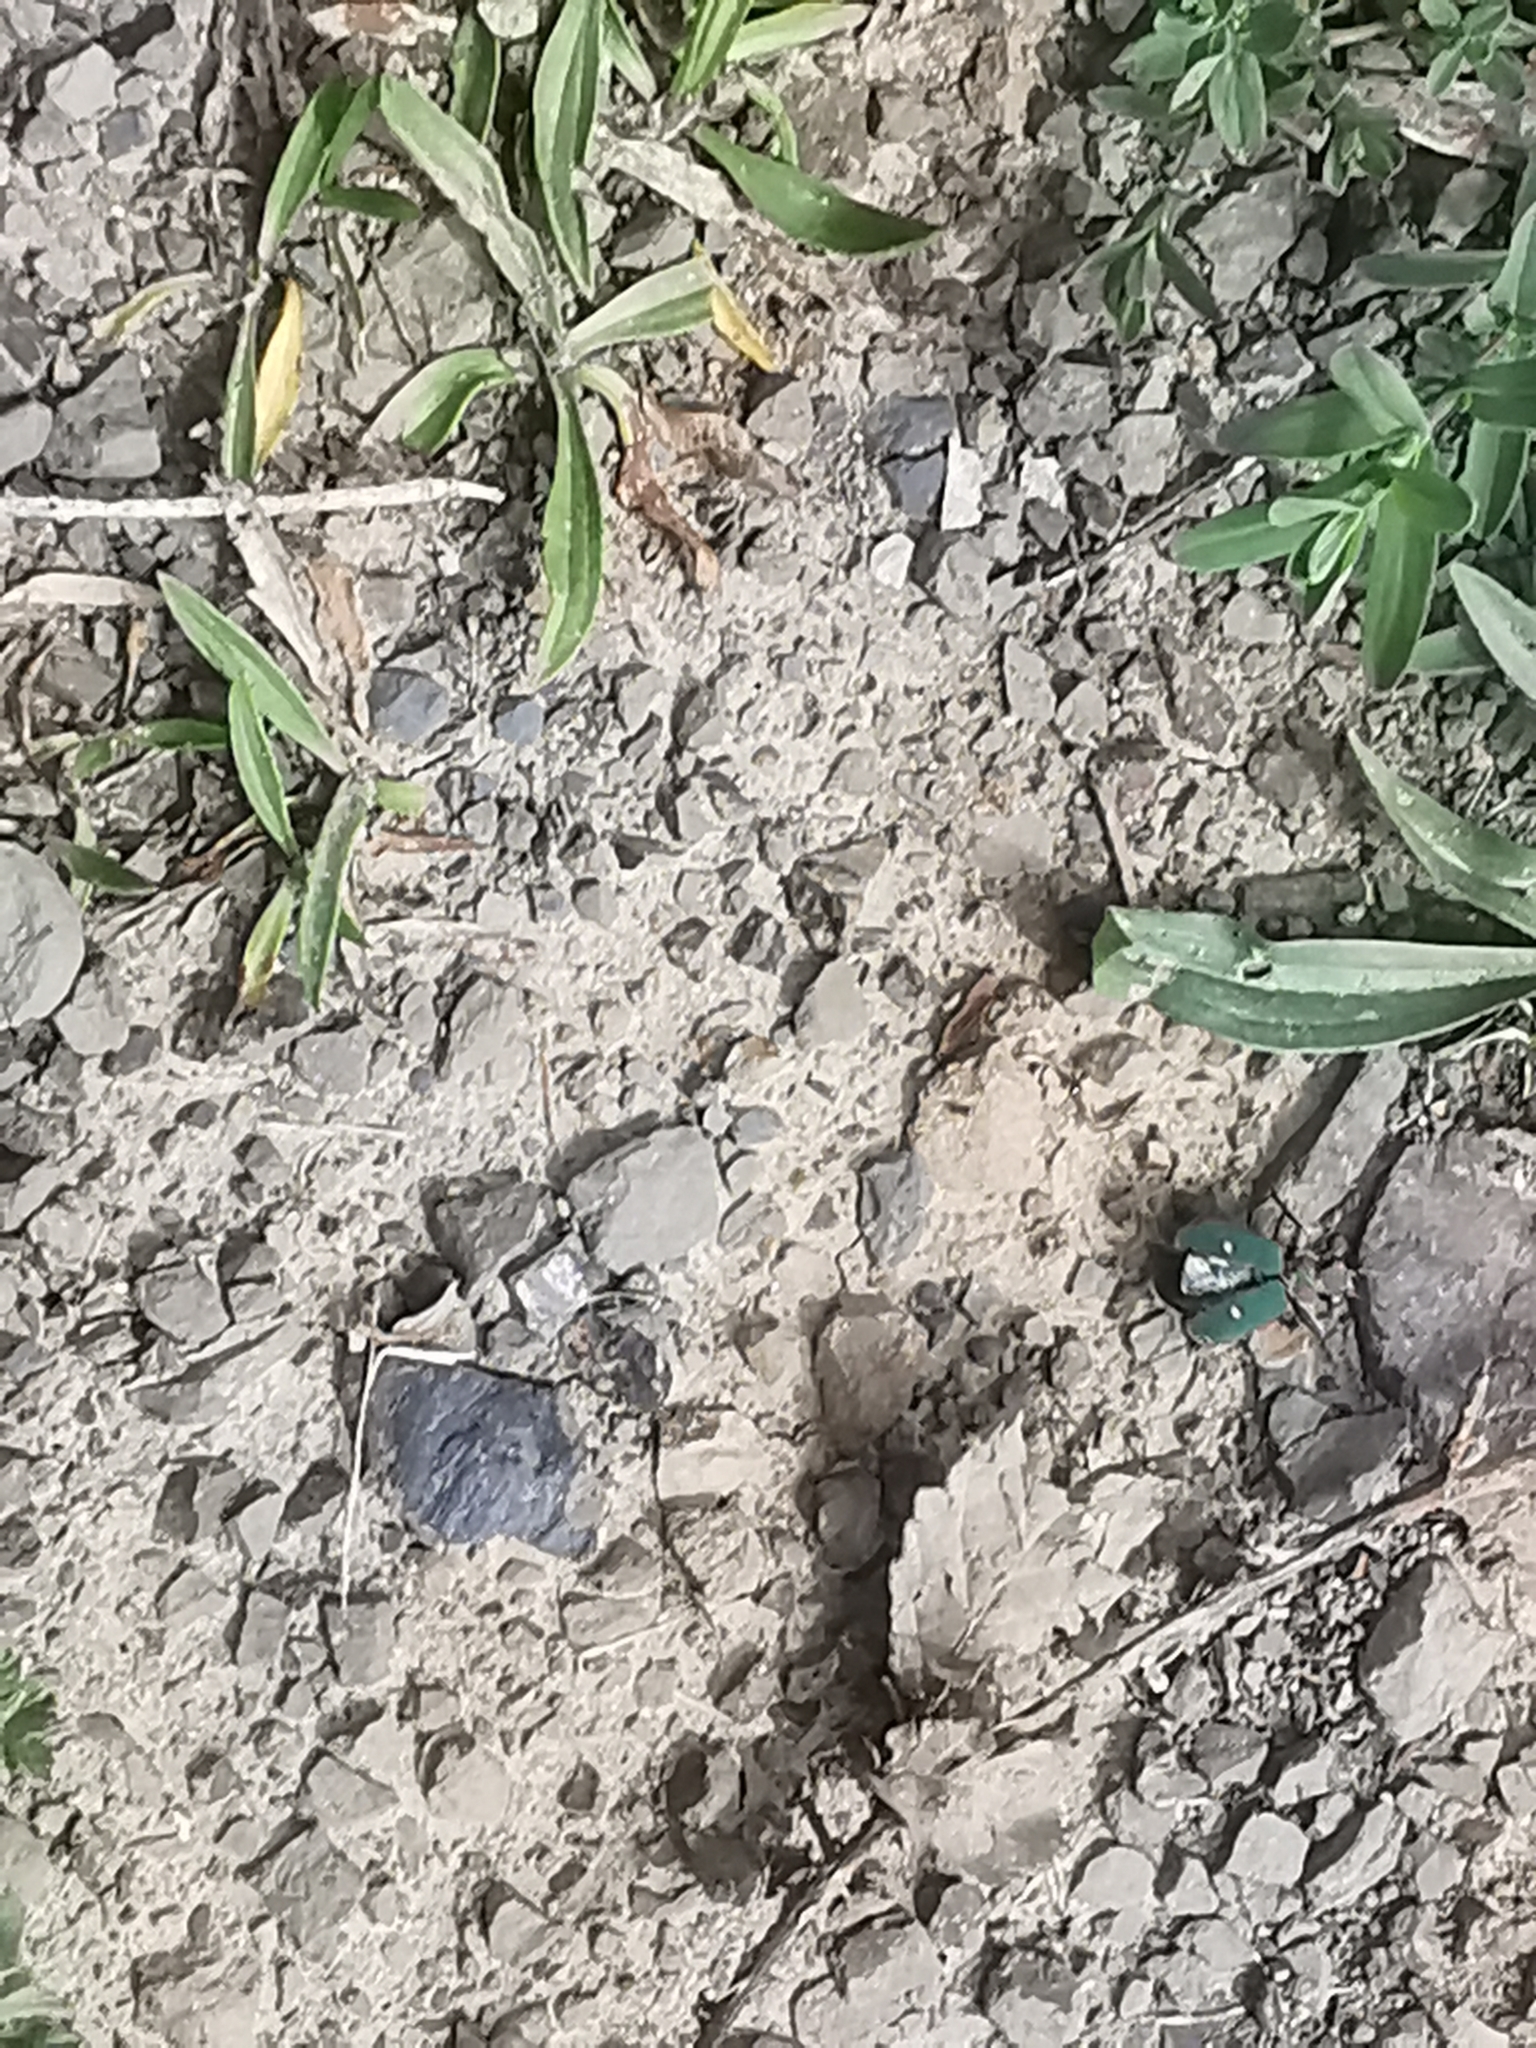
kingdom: Animalia
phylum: Arthropoda
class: Insecta
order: Coleoptera
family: Carabidae
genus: Cicindela
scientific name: Cicindela campestris
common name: Common tiger beetle
